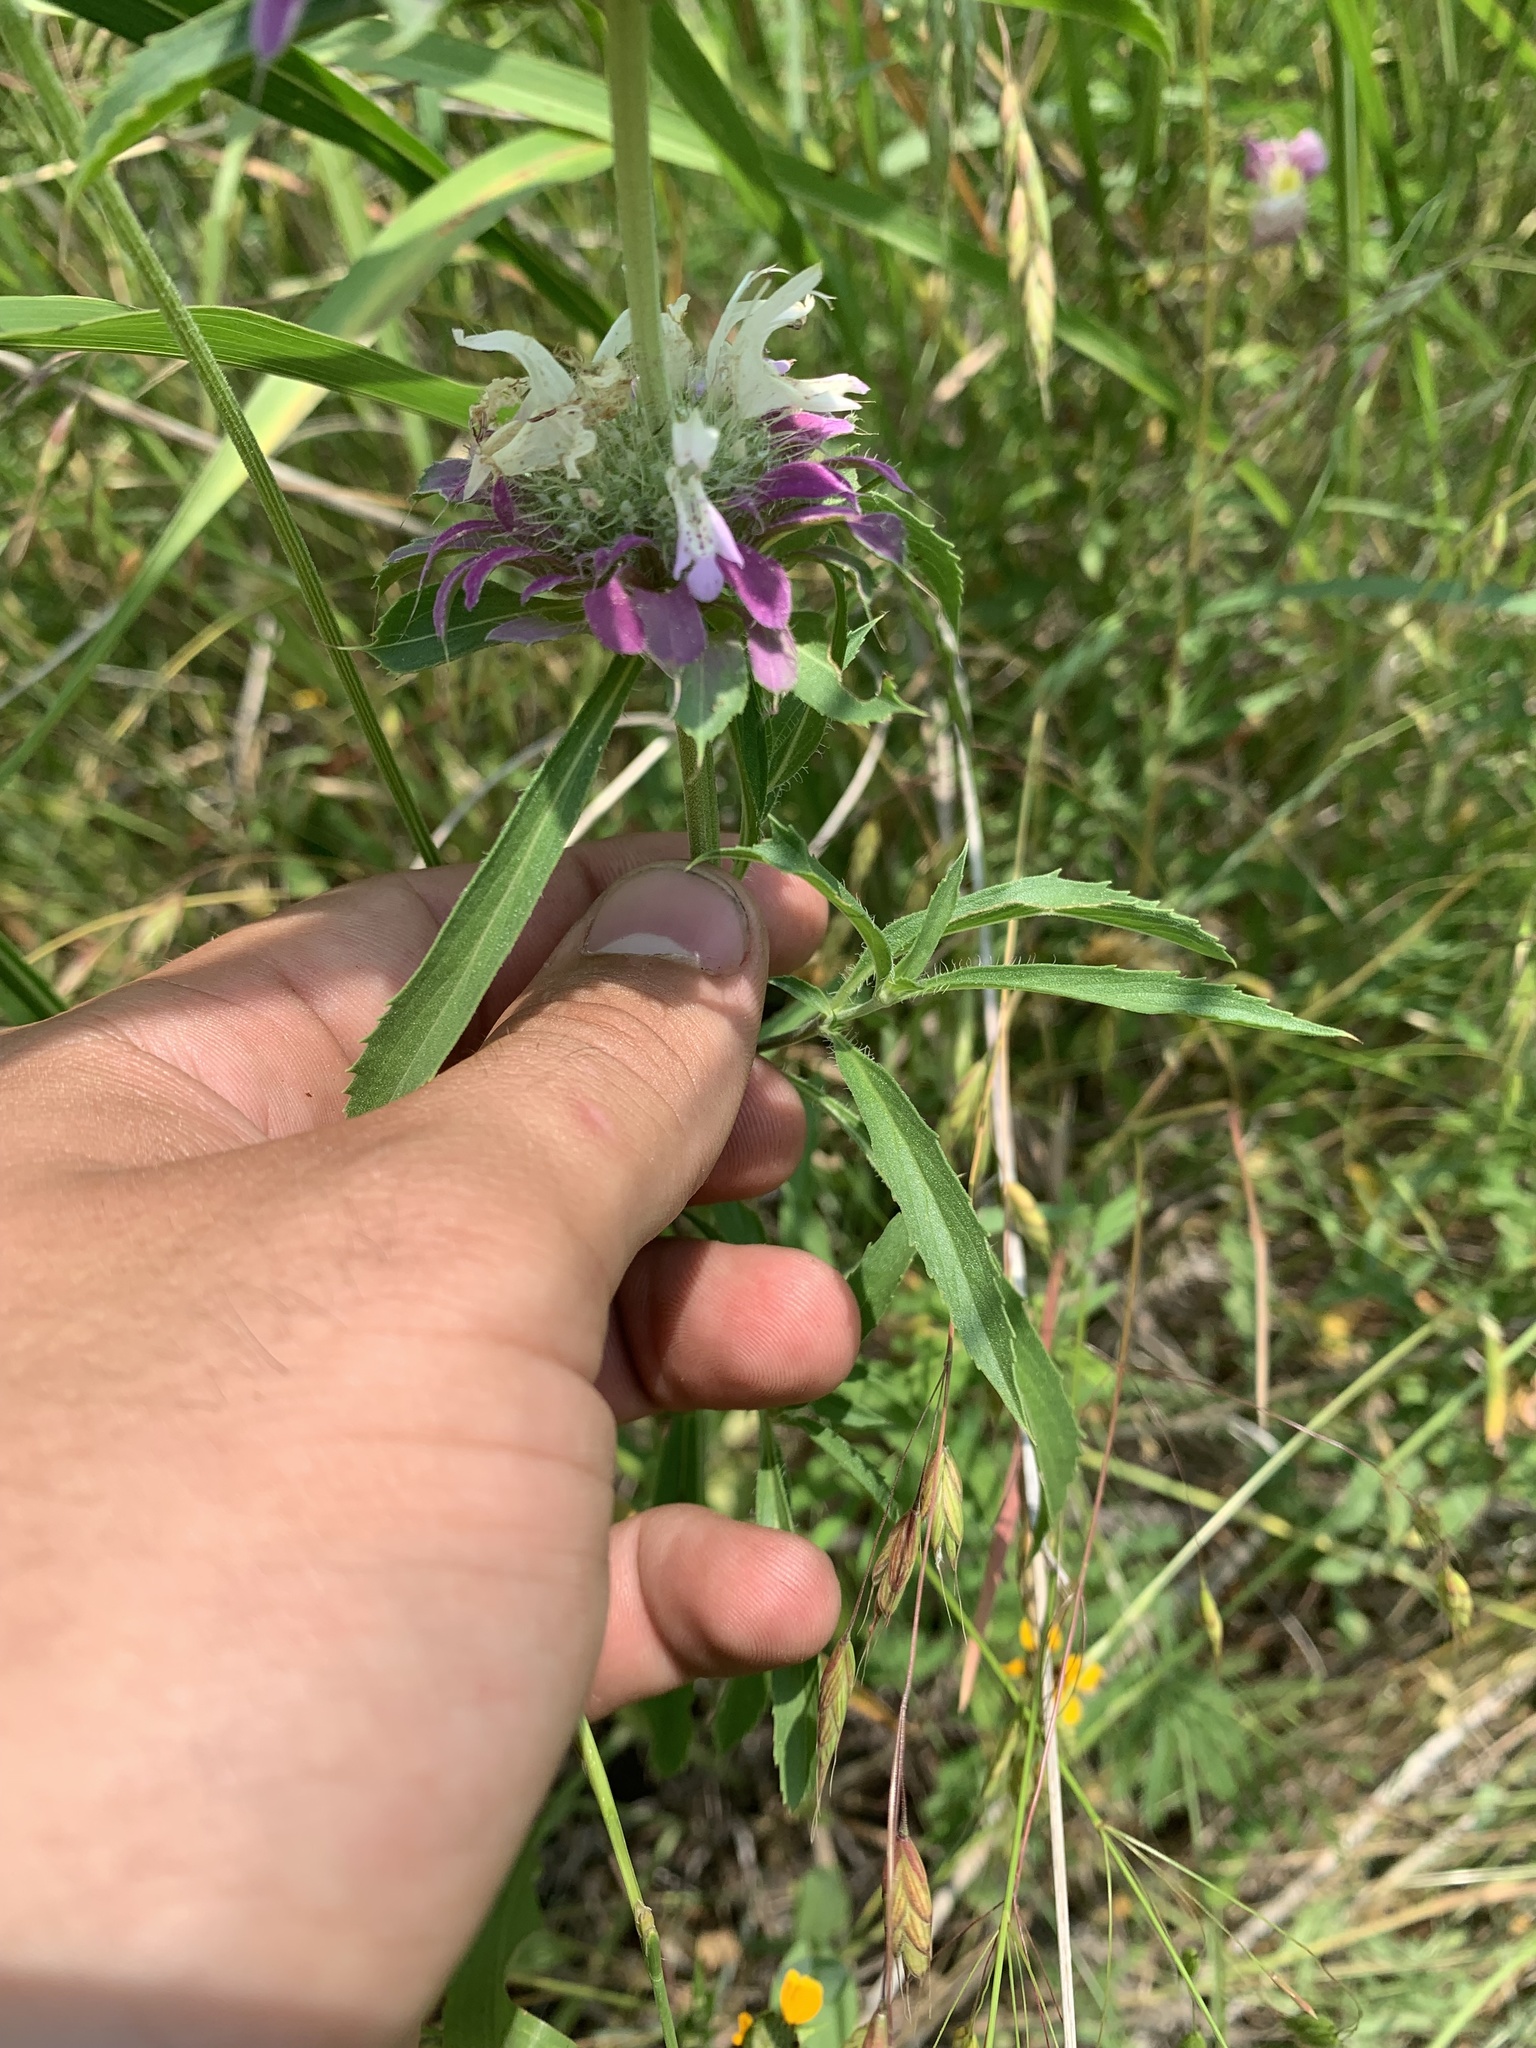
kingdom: Plantae
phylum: Tracheophyta
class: Magnoliopsida
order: Lamiales
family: Lamiaceae
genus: Monarda
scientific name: Monarda citriodora
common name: Lemon beebalm
